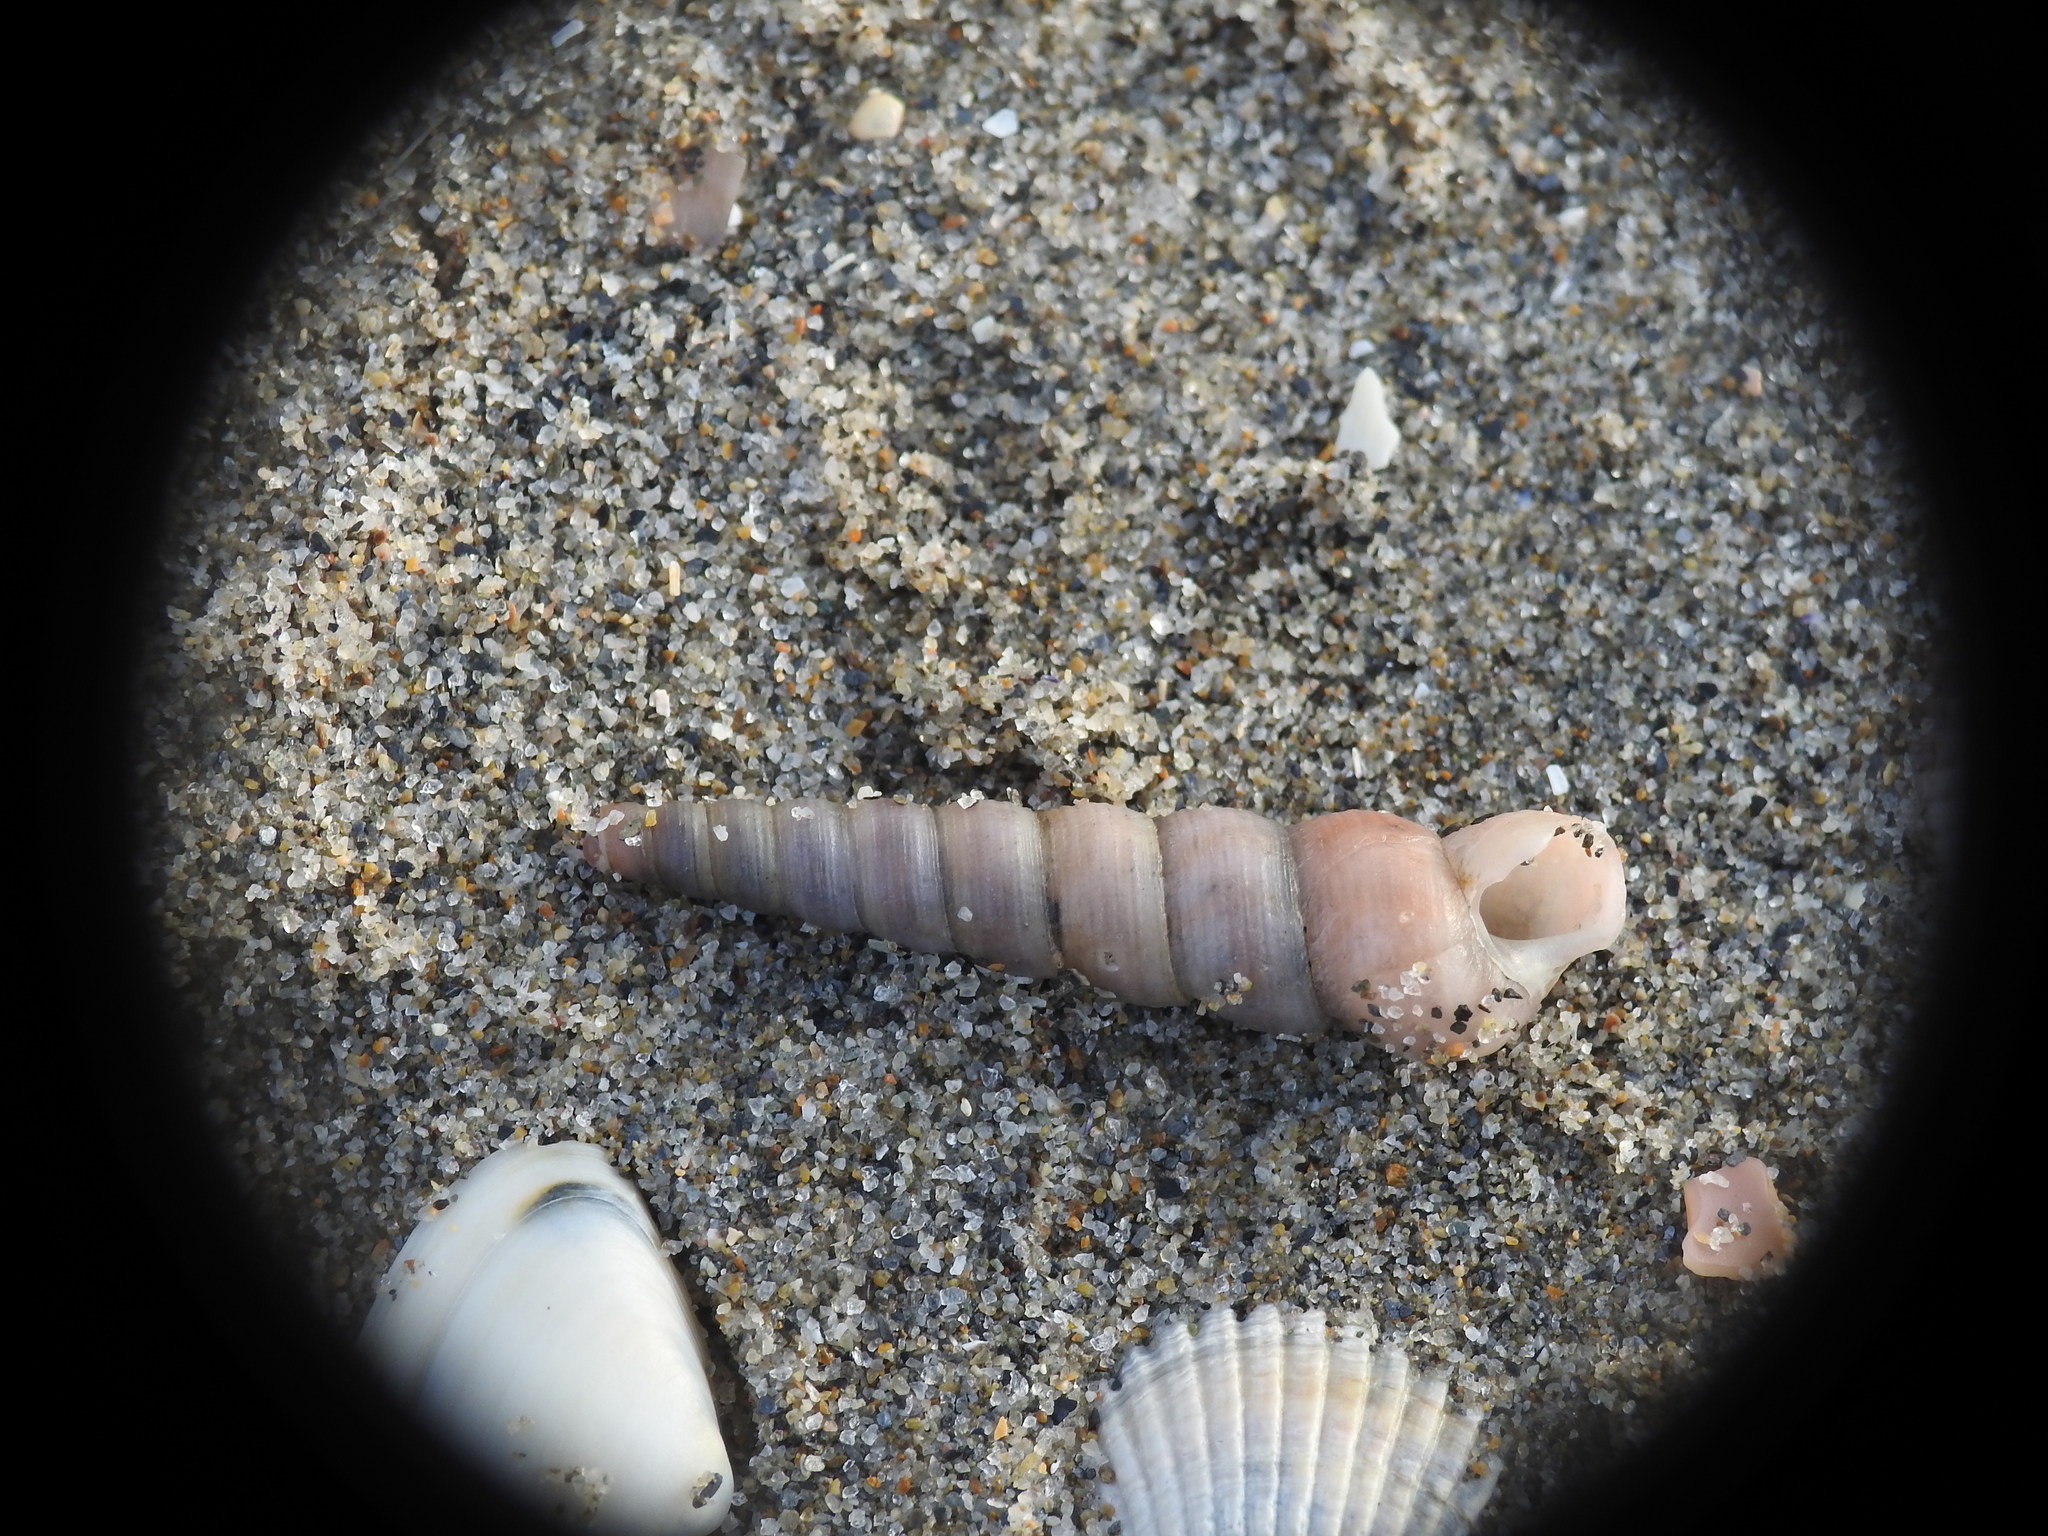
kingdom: Animalia
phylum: Mollusca
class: Gastropoda
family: Turritellidae
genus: Turritellinella
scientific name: Turritellinella tricarinata
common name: Auger shell
